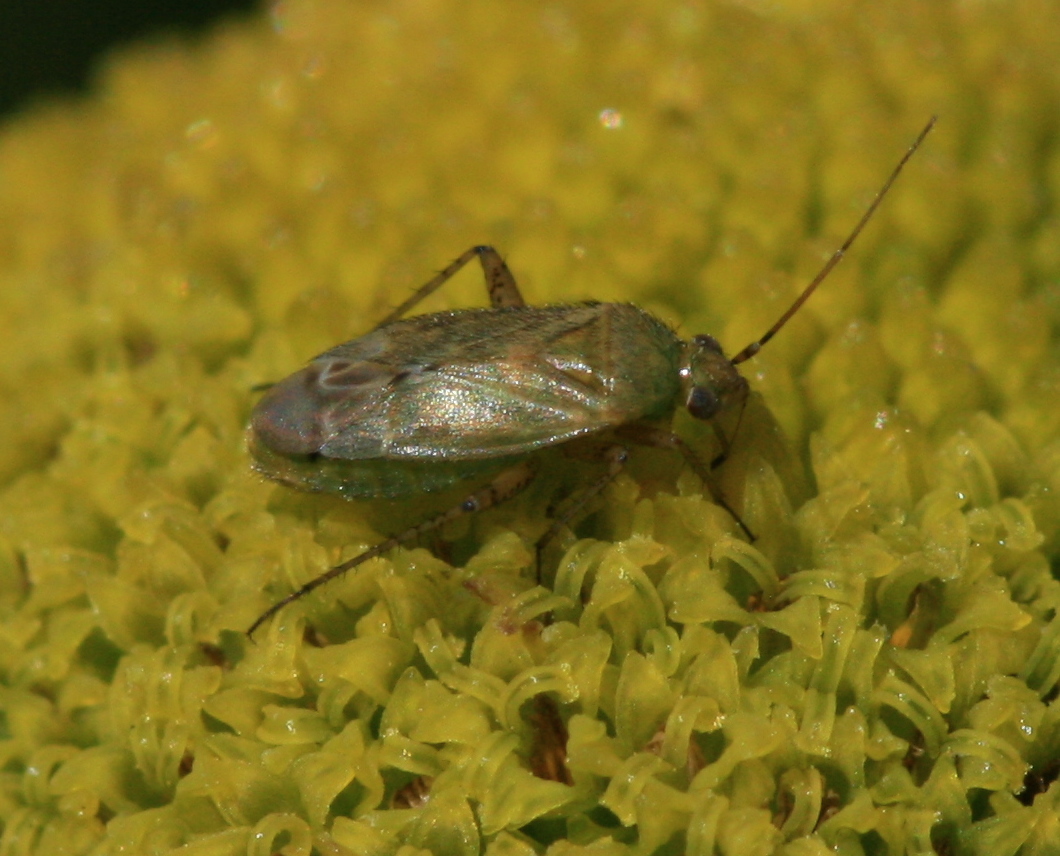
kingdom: Animalia
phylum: Arthropoda
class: Insecta
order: Hemiptera
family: Miridae
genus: Plagiognathus
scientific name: Plagiognathus chrysanthemi
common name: Plant bug
